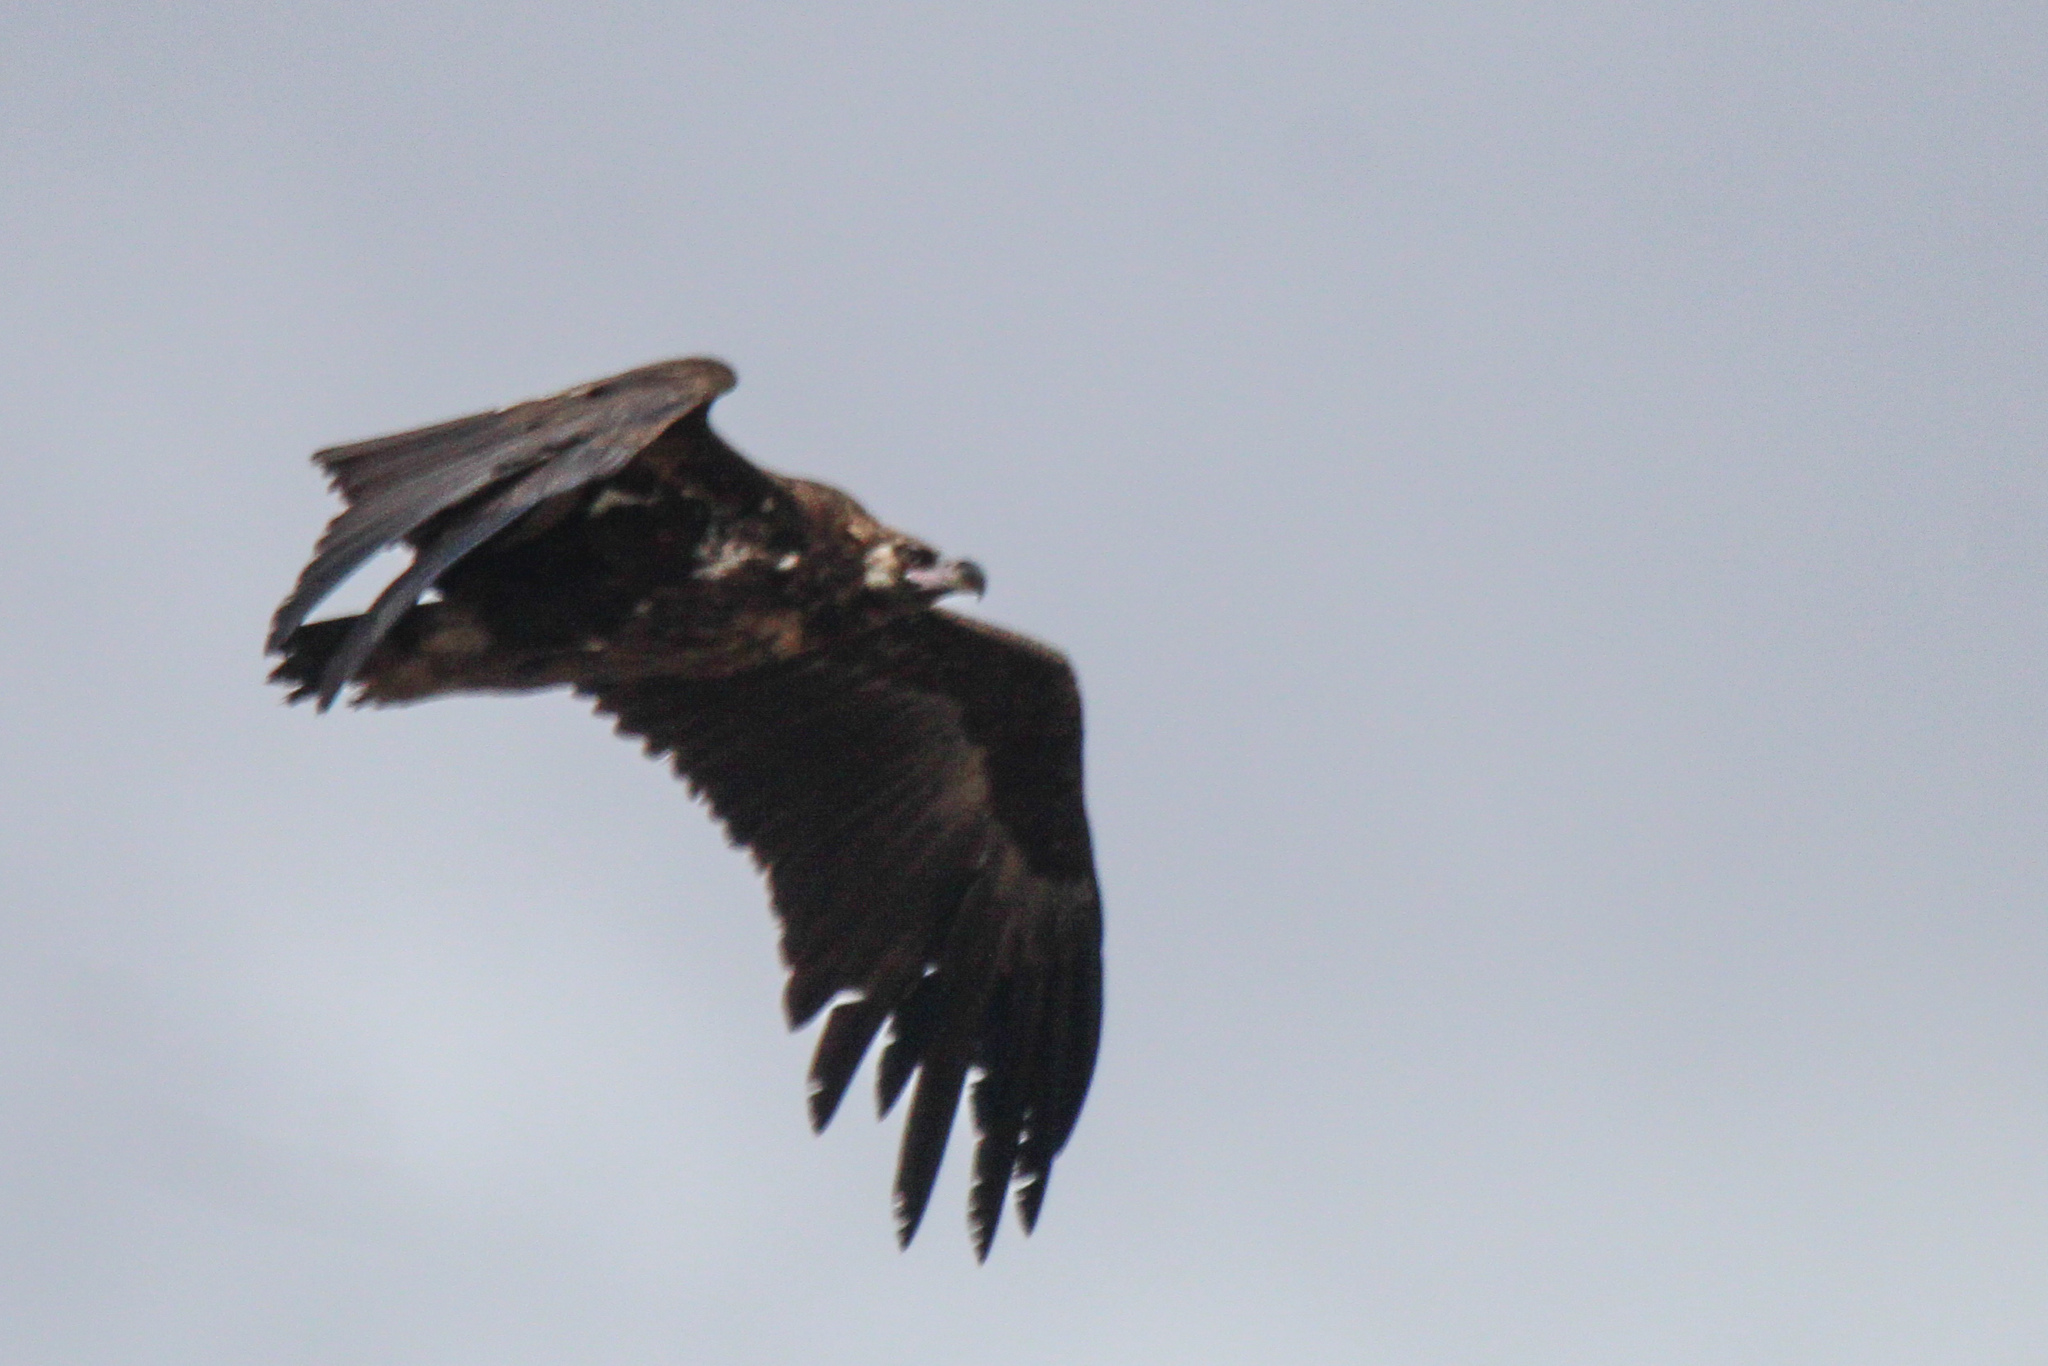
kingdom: Animalia
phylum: Chordata
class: Aves
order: Accipitriformes
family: Accipitridae
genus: Aegypius
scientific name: Aegypius monachus
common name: Cinereous vulture
